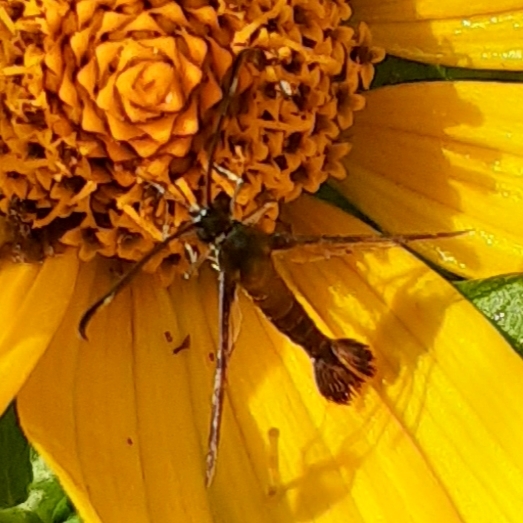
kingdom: Animalia
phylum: Arthropoda
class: Insecta
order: Lepidoptera
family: Sesiidae
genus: Carmenta
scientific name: Carmenta ithacae
